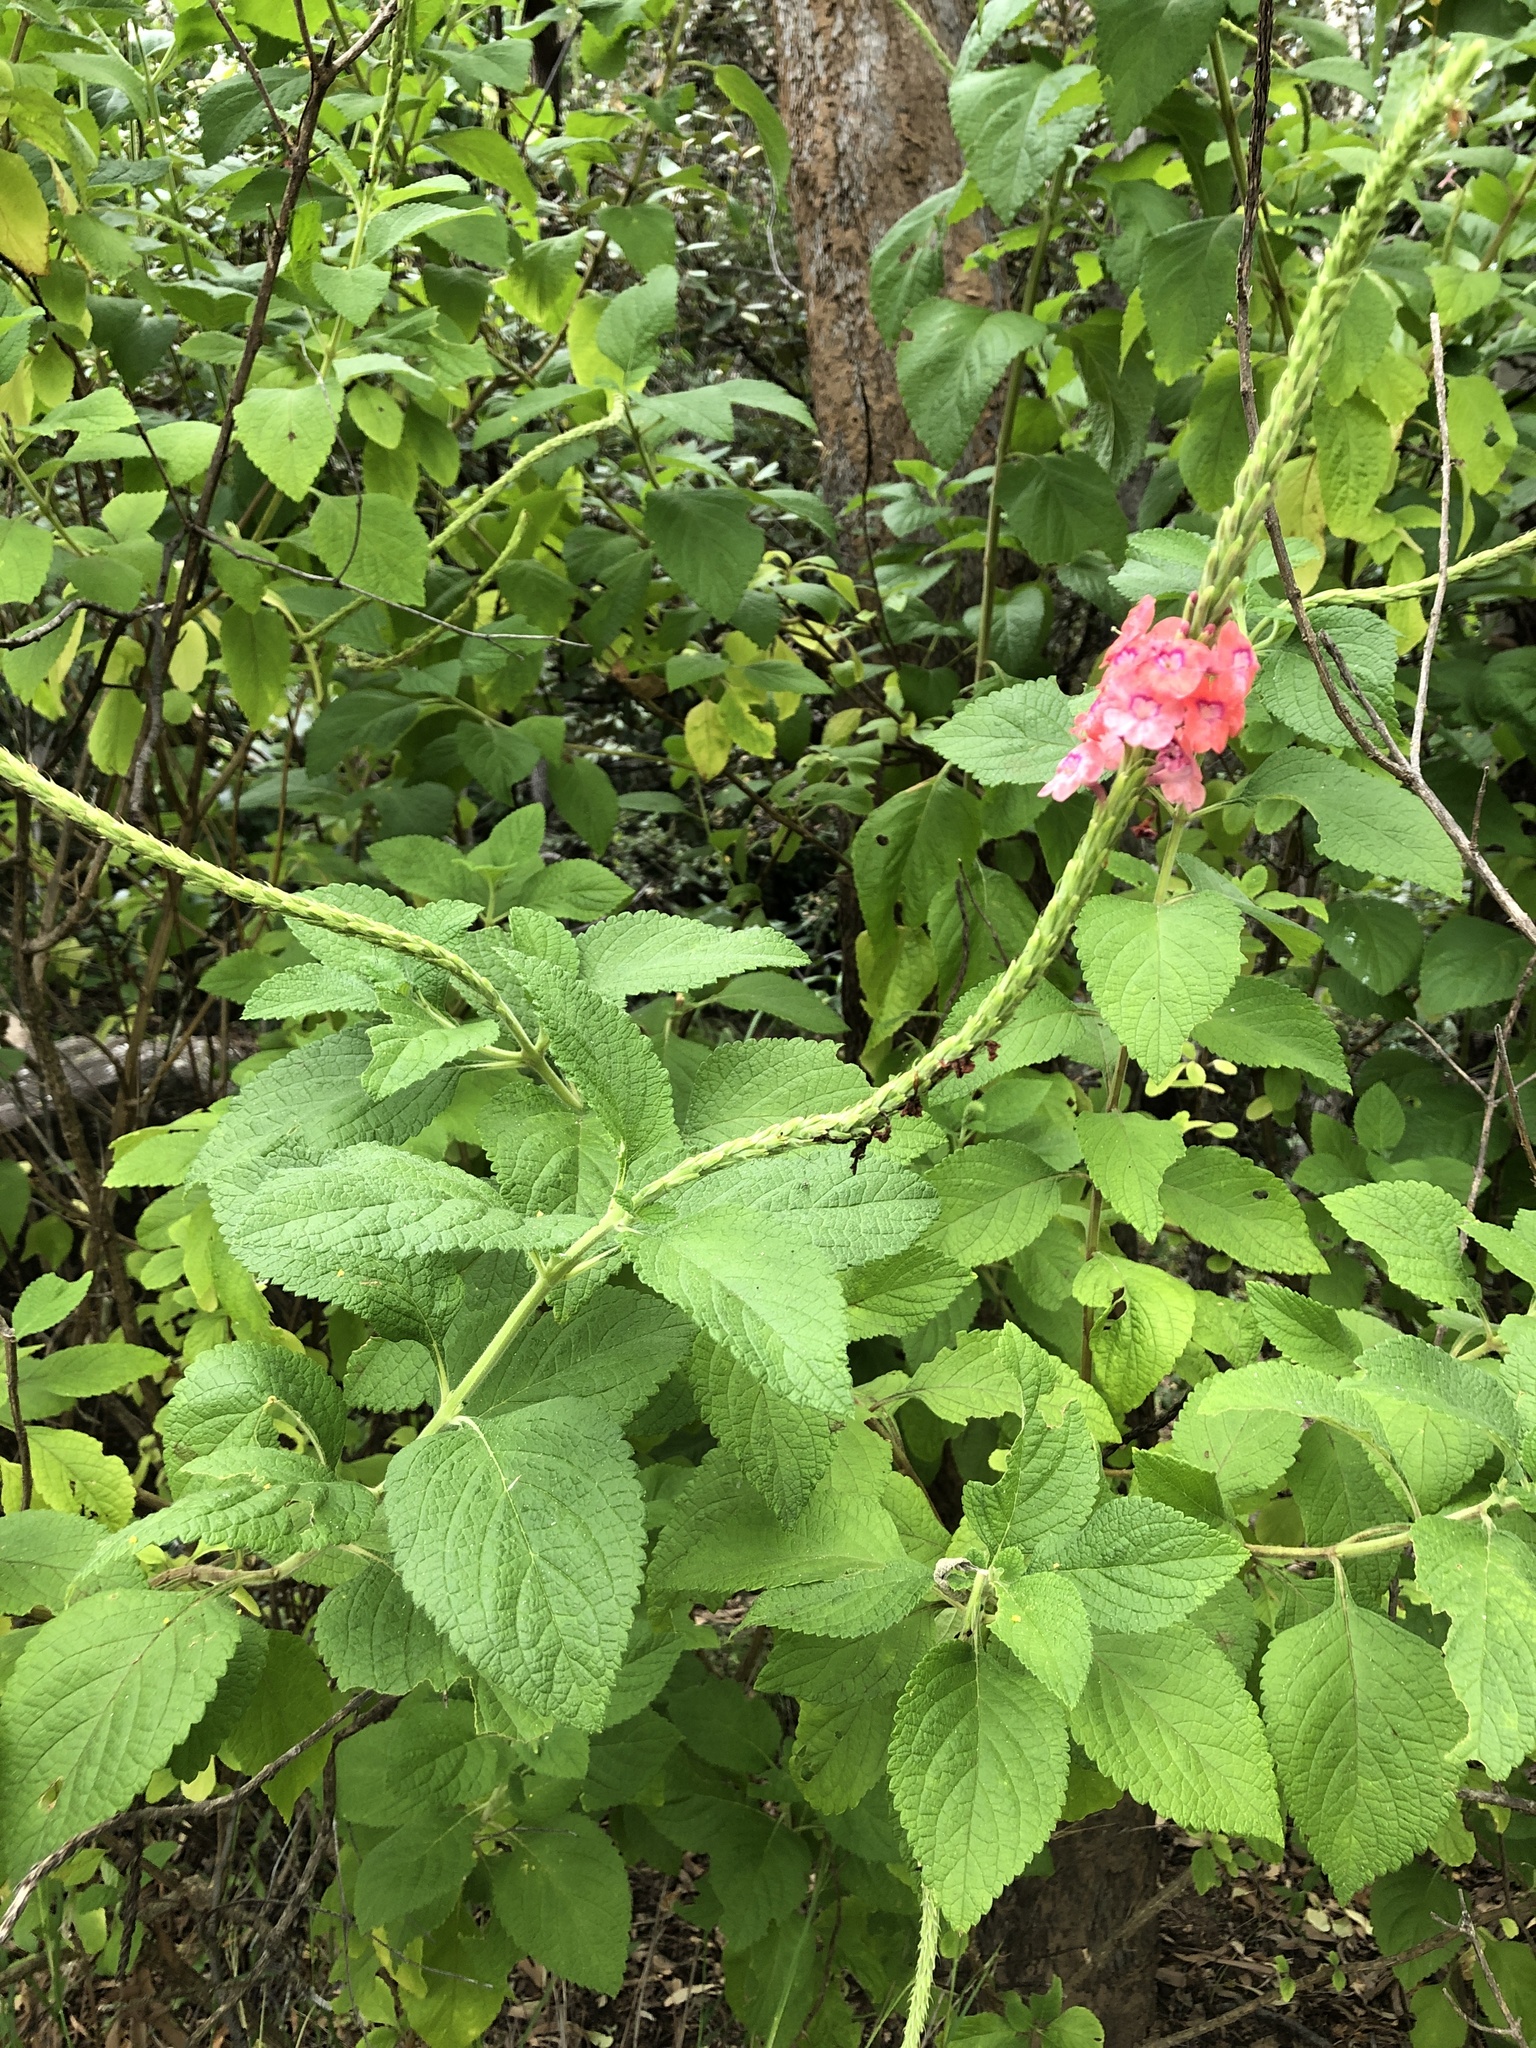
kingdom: Plantae
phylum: Tracheophyta
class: Magnoliopsida
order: Lamiales
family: Verbenaceae
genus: Stachytarpheta
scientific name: Stachytarpheta mutabilis
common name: Changeable velvetberry
